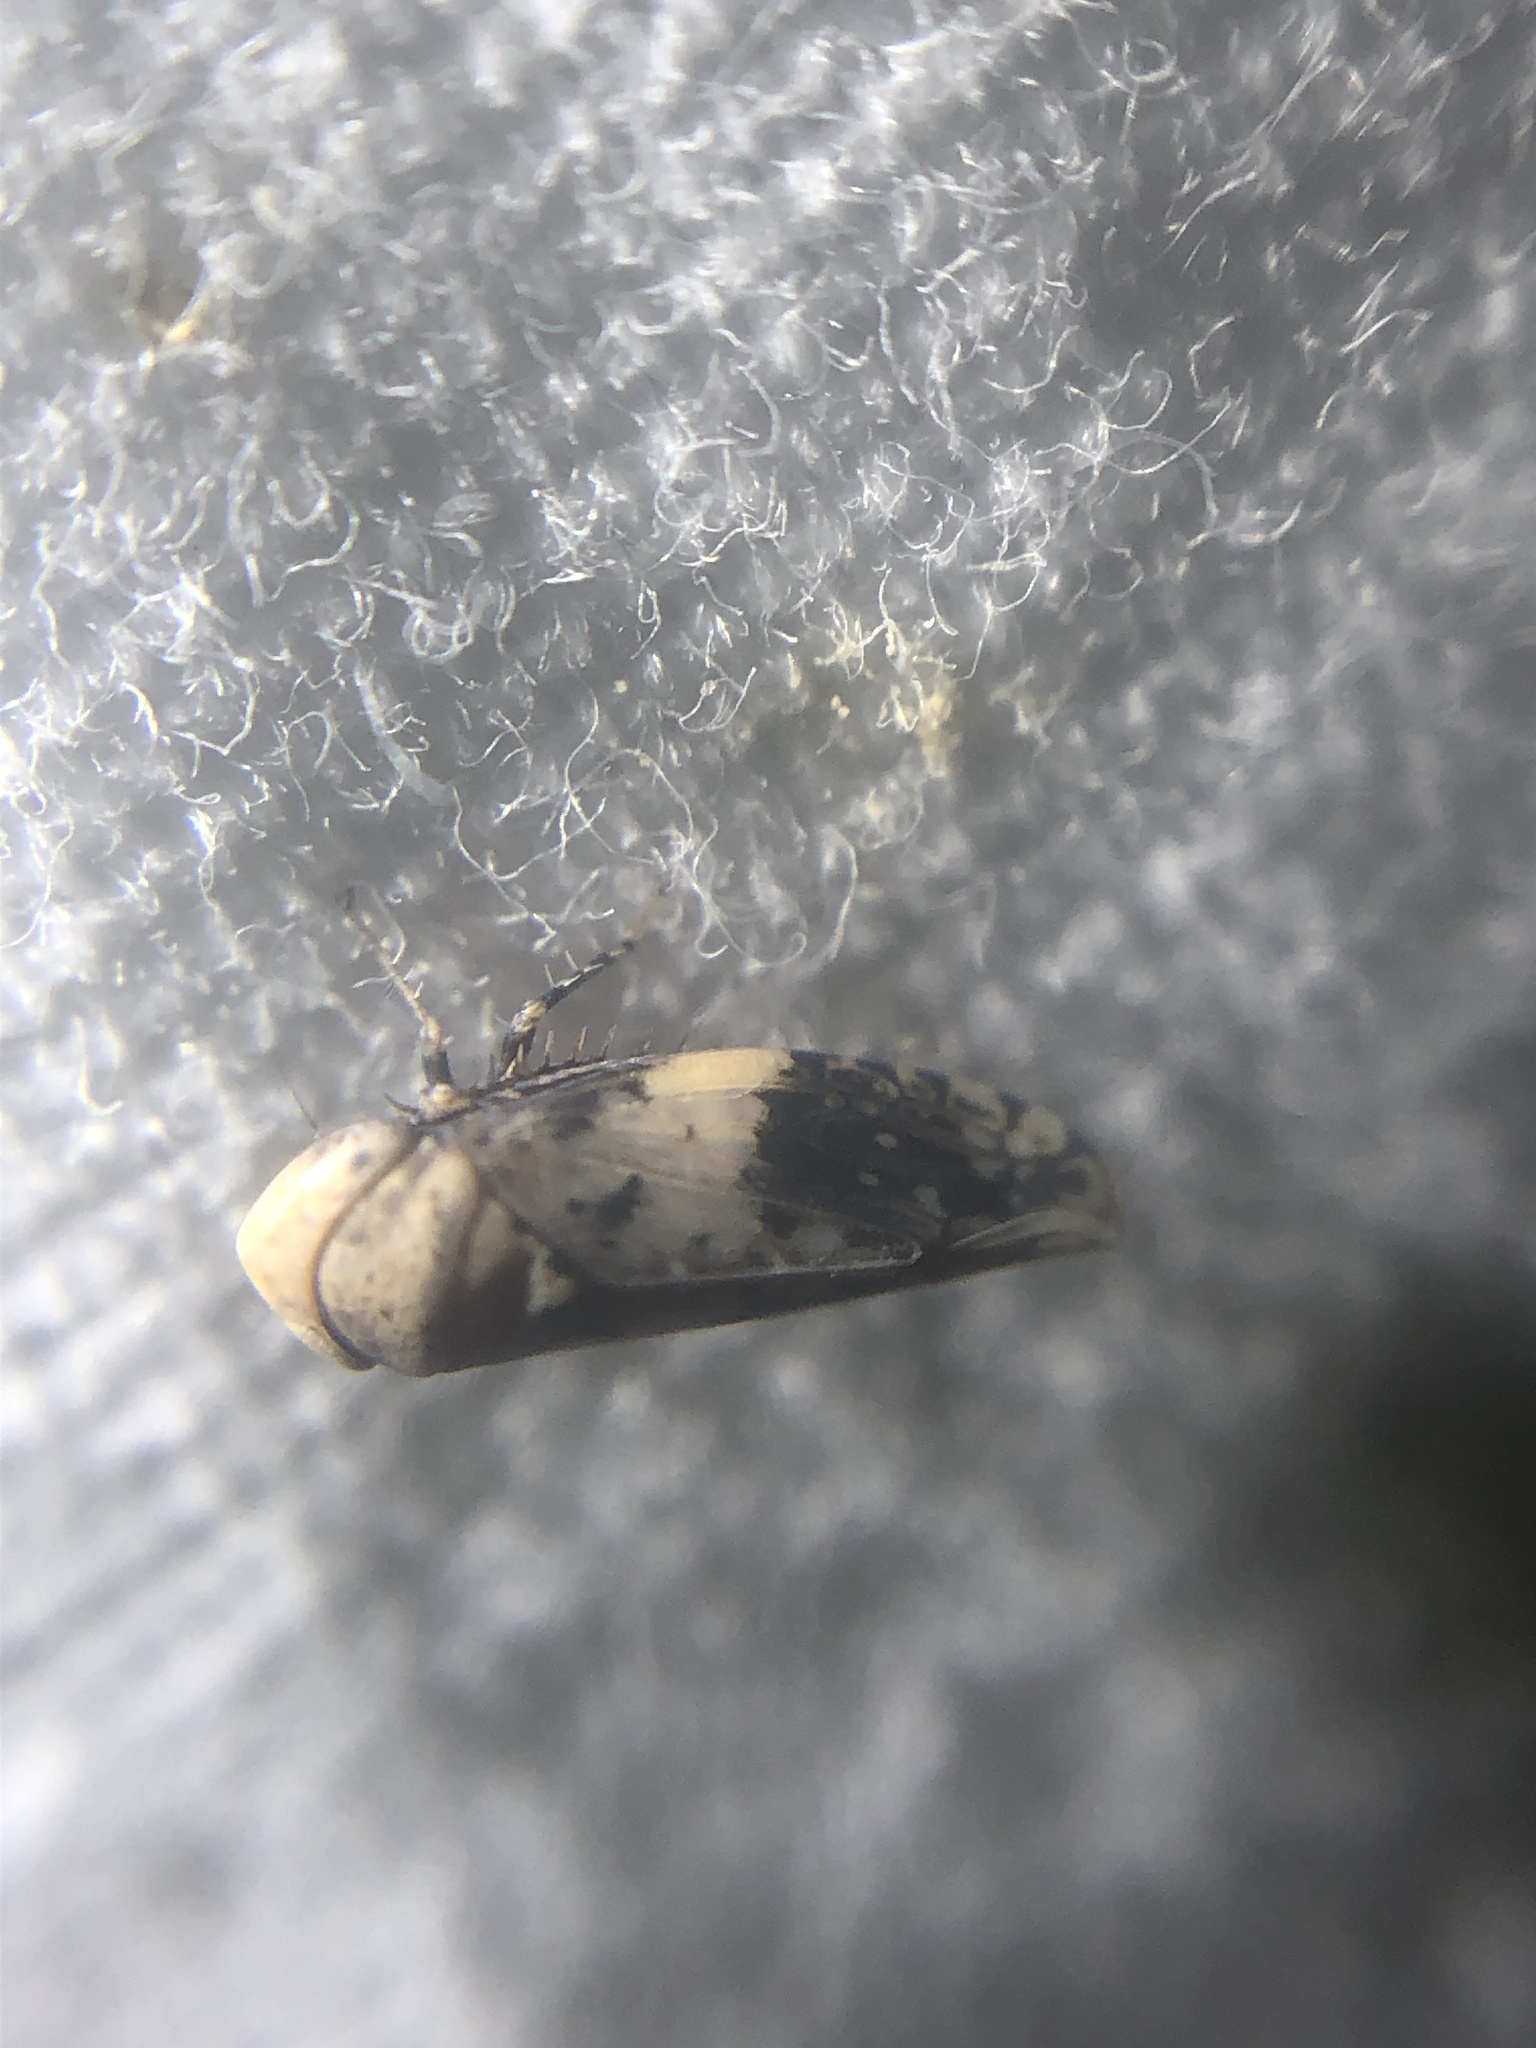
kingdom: Animalia
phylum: Arthropoda
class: Insecta
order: Hemiptera
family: Cicadellidae
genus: Menosoma
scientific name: Menosoma cinctum
